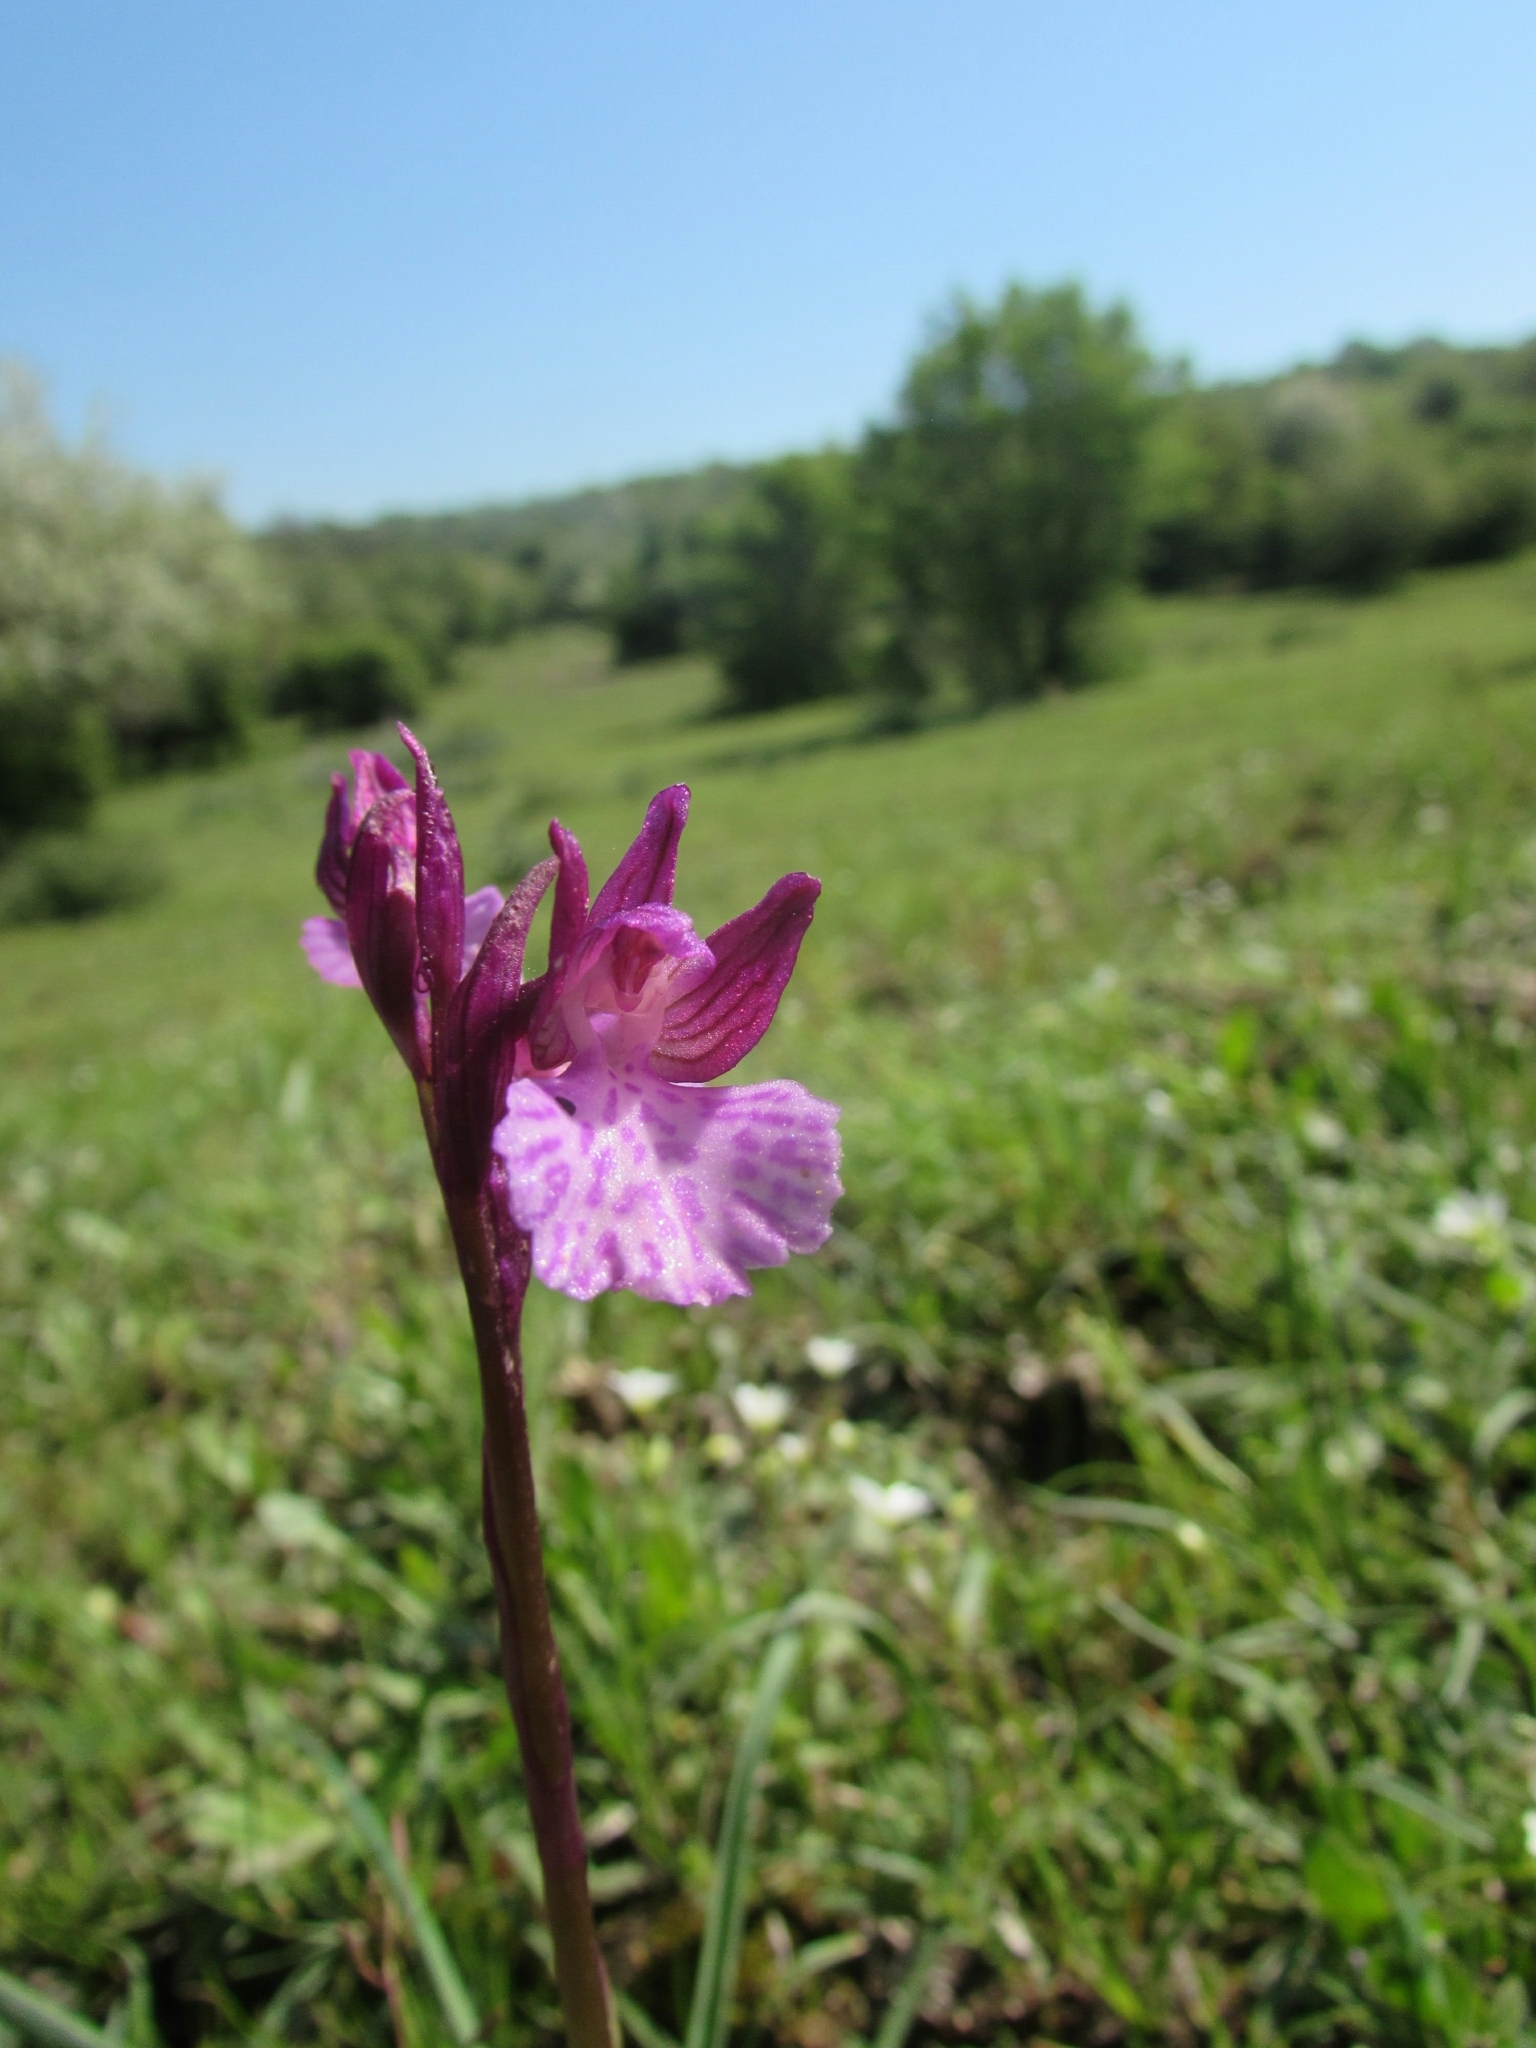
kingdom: Plantae
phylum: Tracheophyta
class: Liliopsida
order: Asparagales
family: Orchidaceae
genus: Anacamptis
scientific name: Anacamptis gennarii
